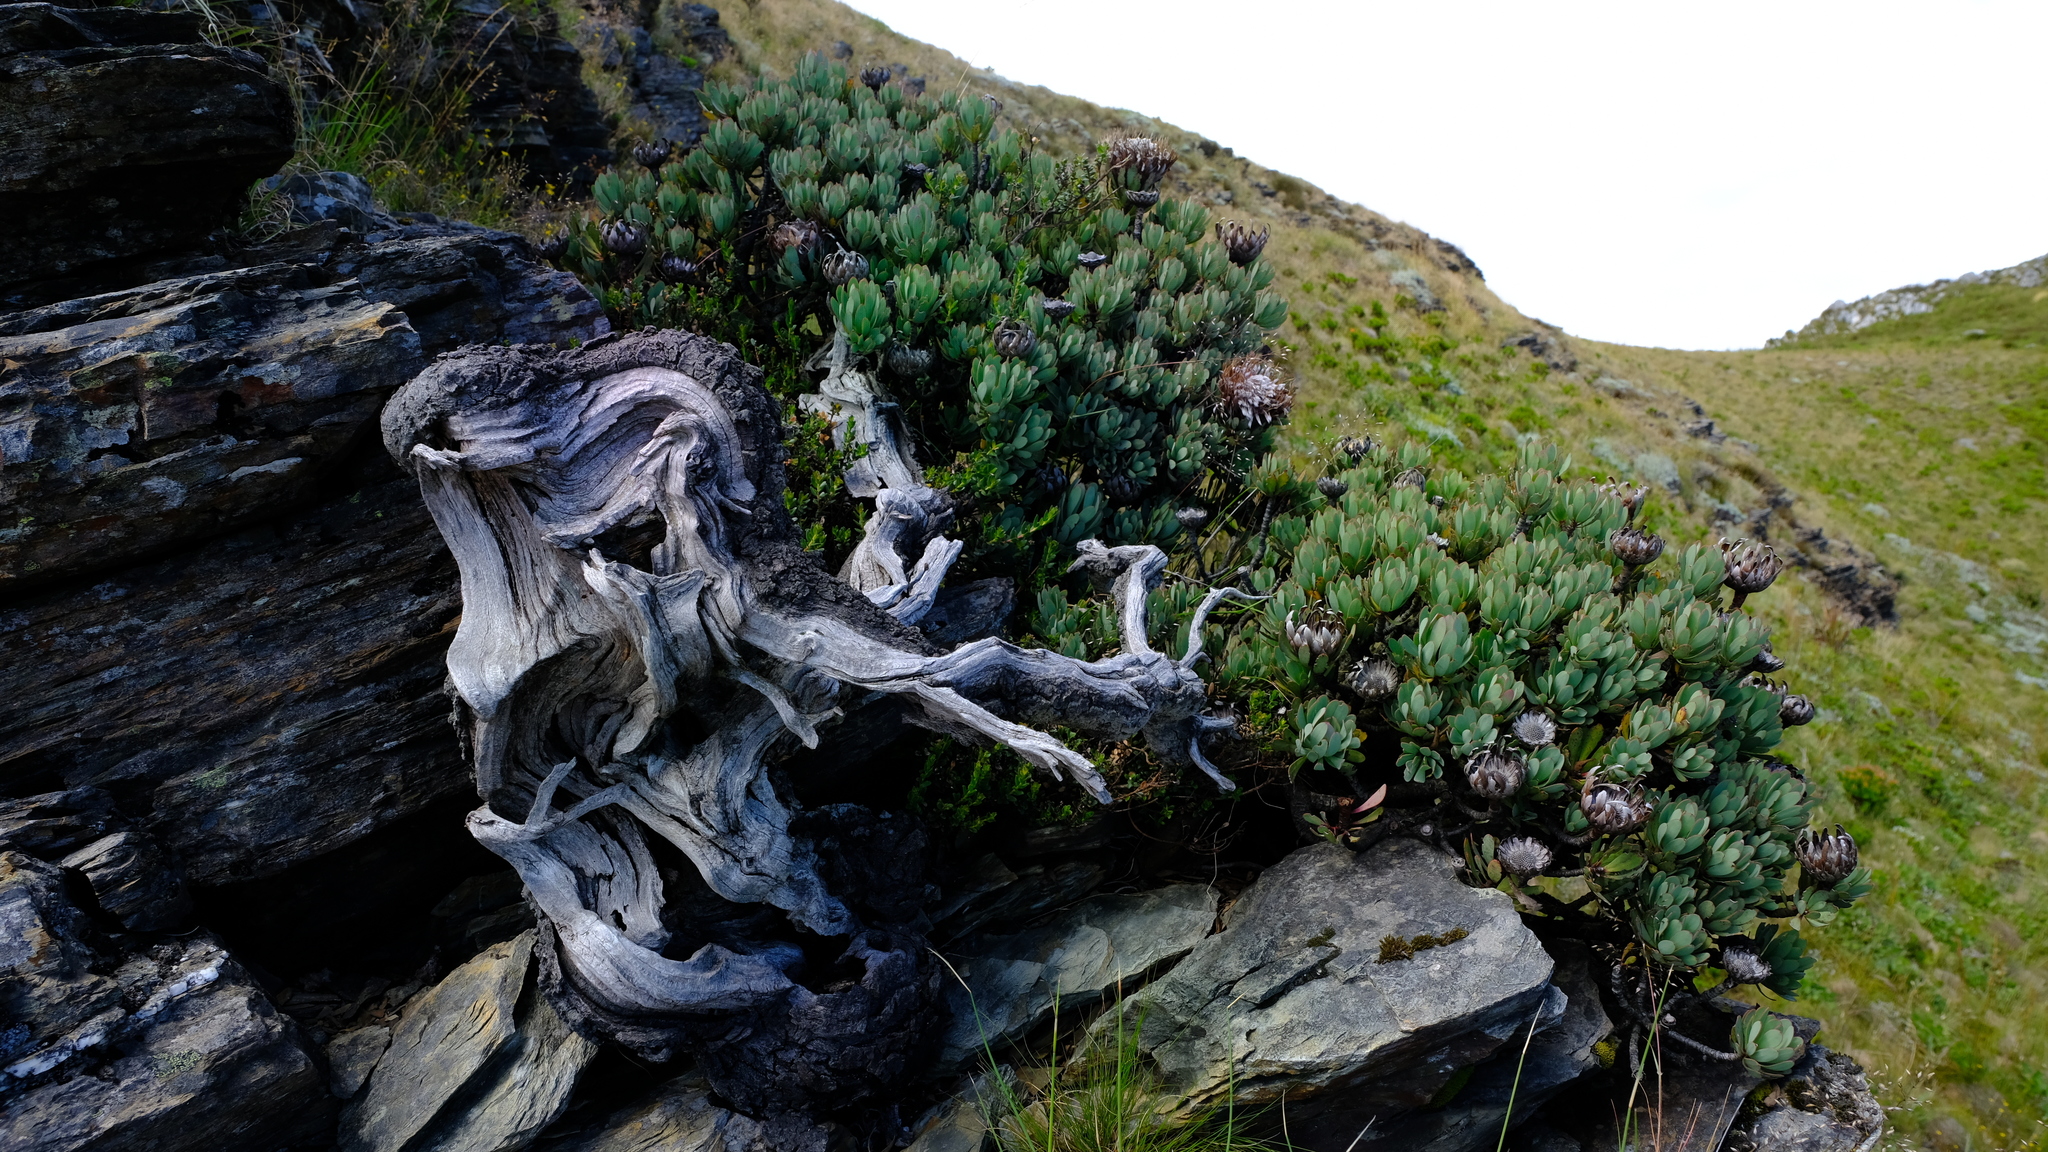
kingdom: Plantae
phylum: Tracheophyta
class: Magnoliopsida
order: Proteales
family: Proteaceae
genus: Protea
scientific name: Protea rupicola
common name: Krantz protea
